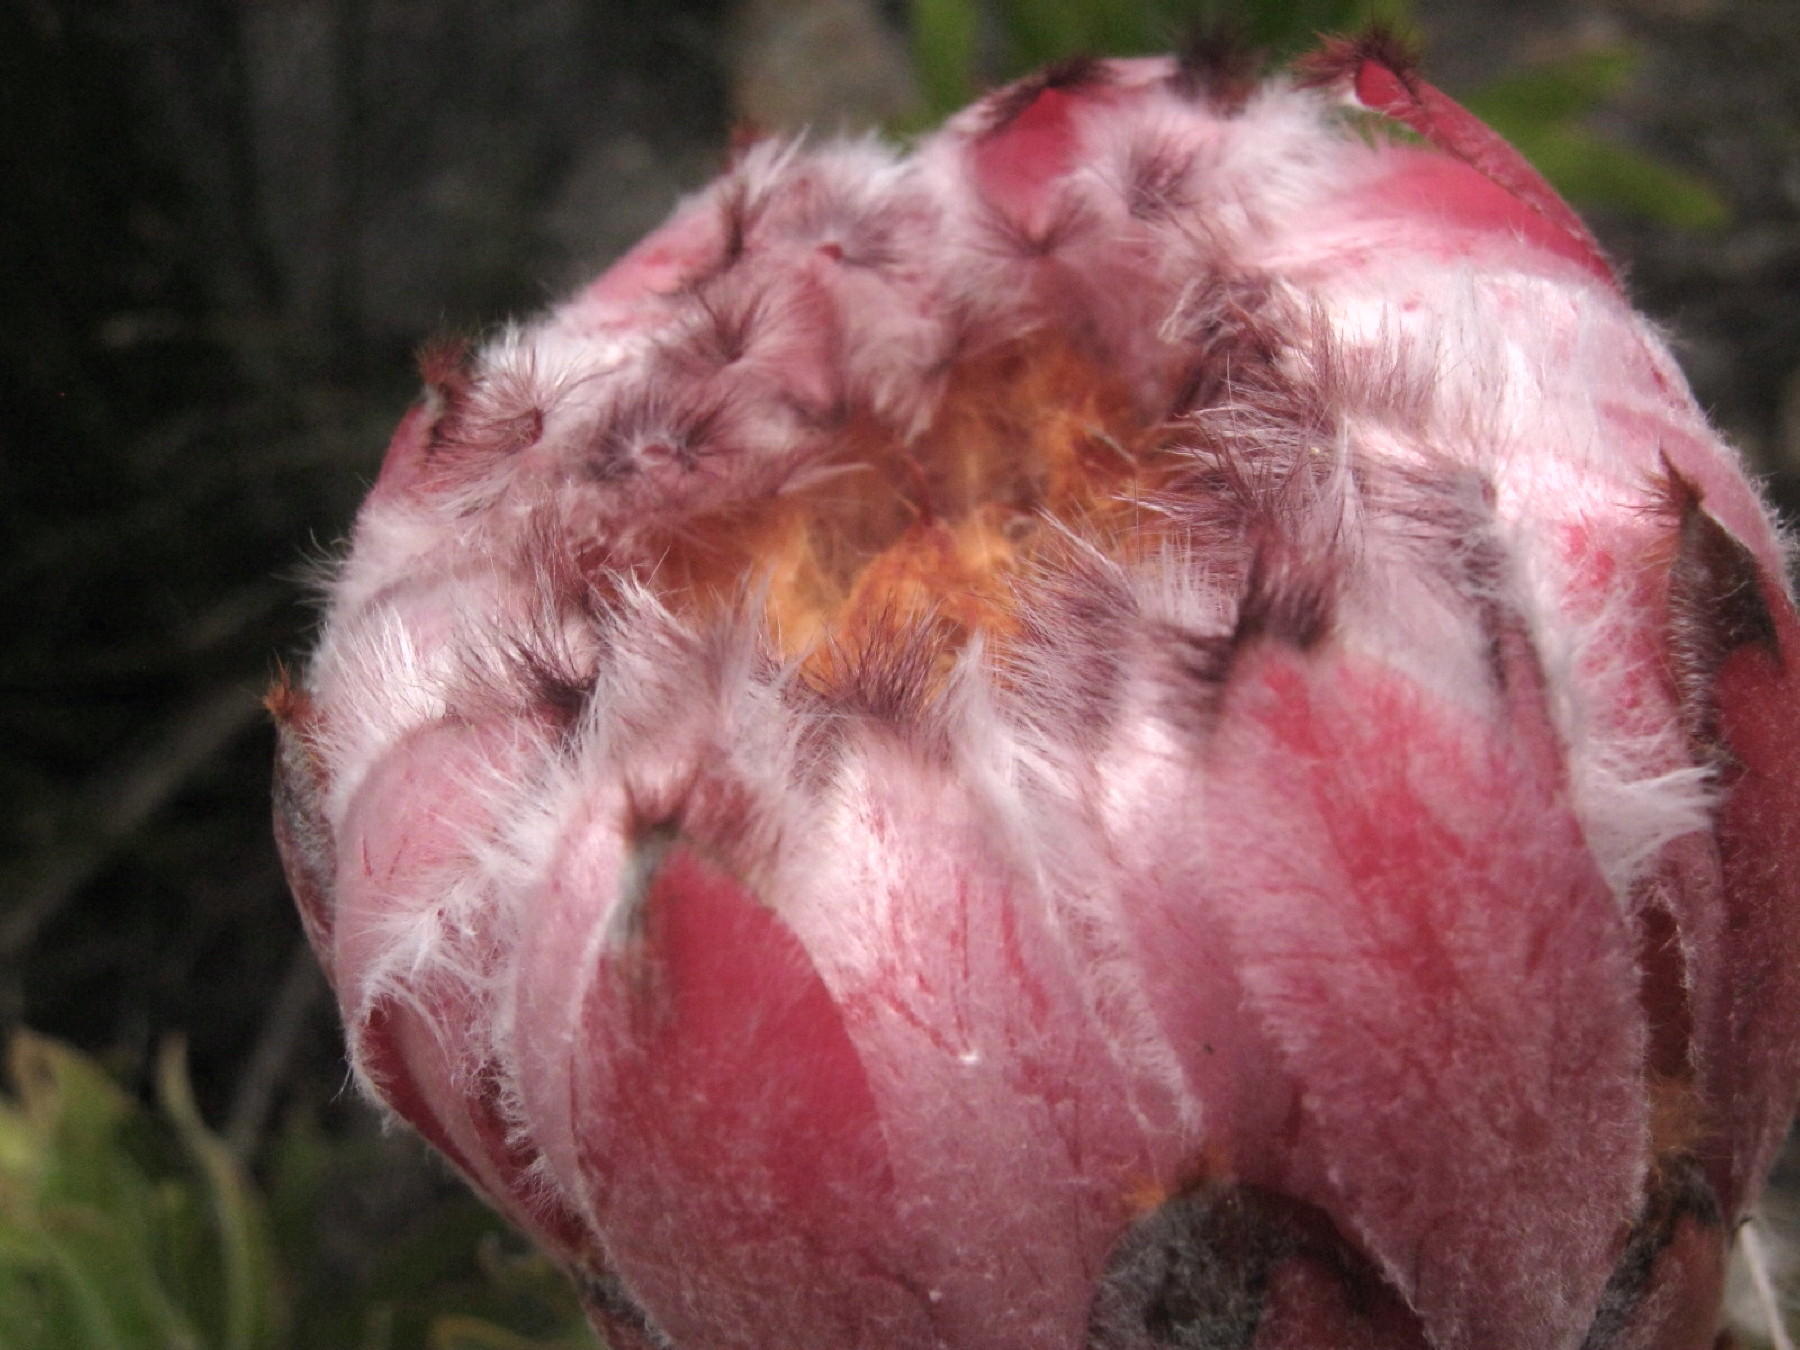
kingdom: Plantae
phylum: Tracheophyta
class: Magnoliopsida
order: Proteales
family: Proteaceae
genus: Protea
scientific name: Protea neriifolia
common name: Blue sugarbush
